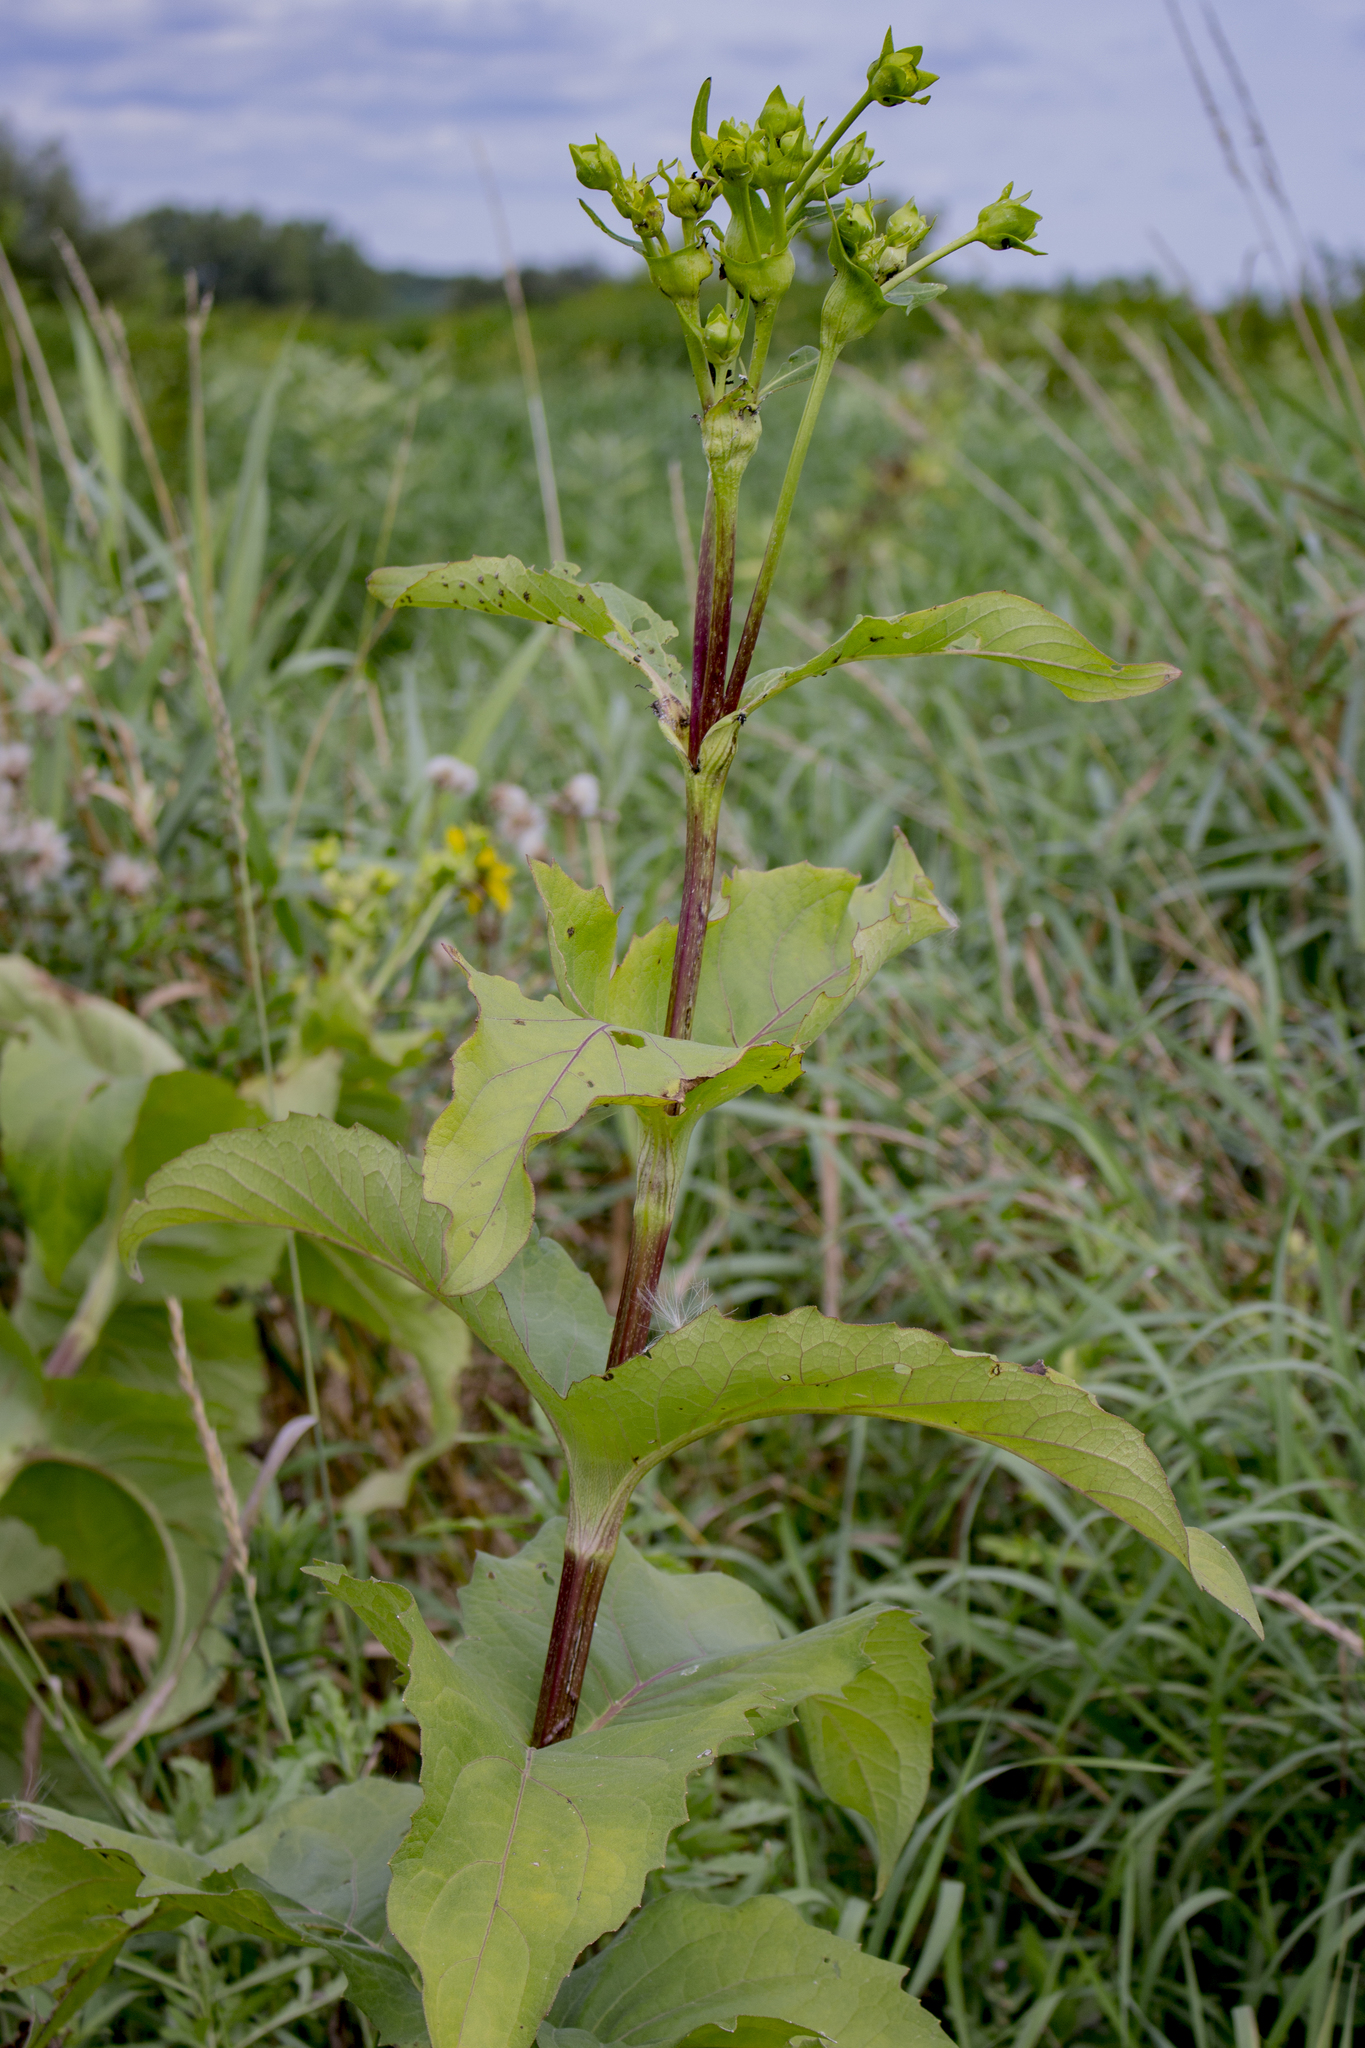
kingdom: Plantae
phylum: Tracheophyta
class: Magnoliopsida
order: Asterales
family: Asteraceae
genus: Silphium
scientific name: Silphium perfoliatum
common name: Cup-plant
